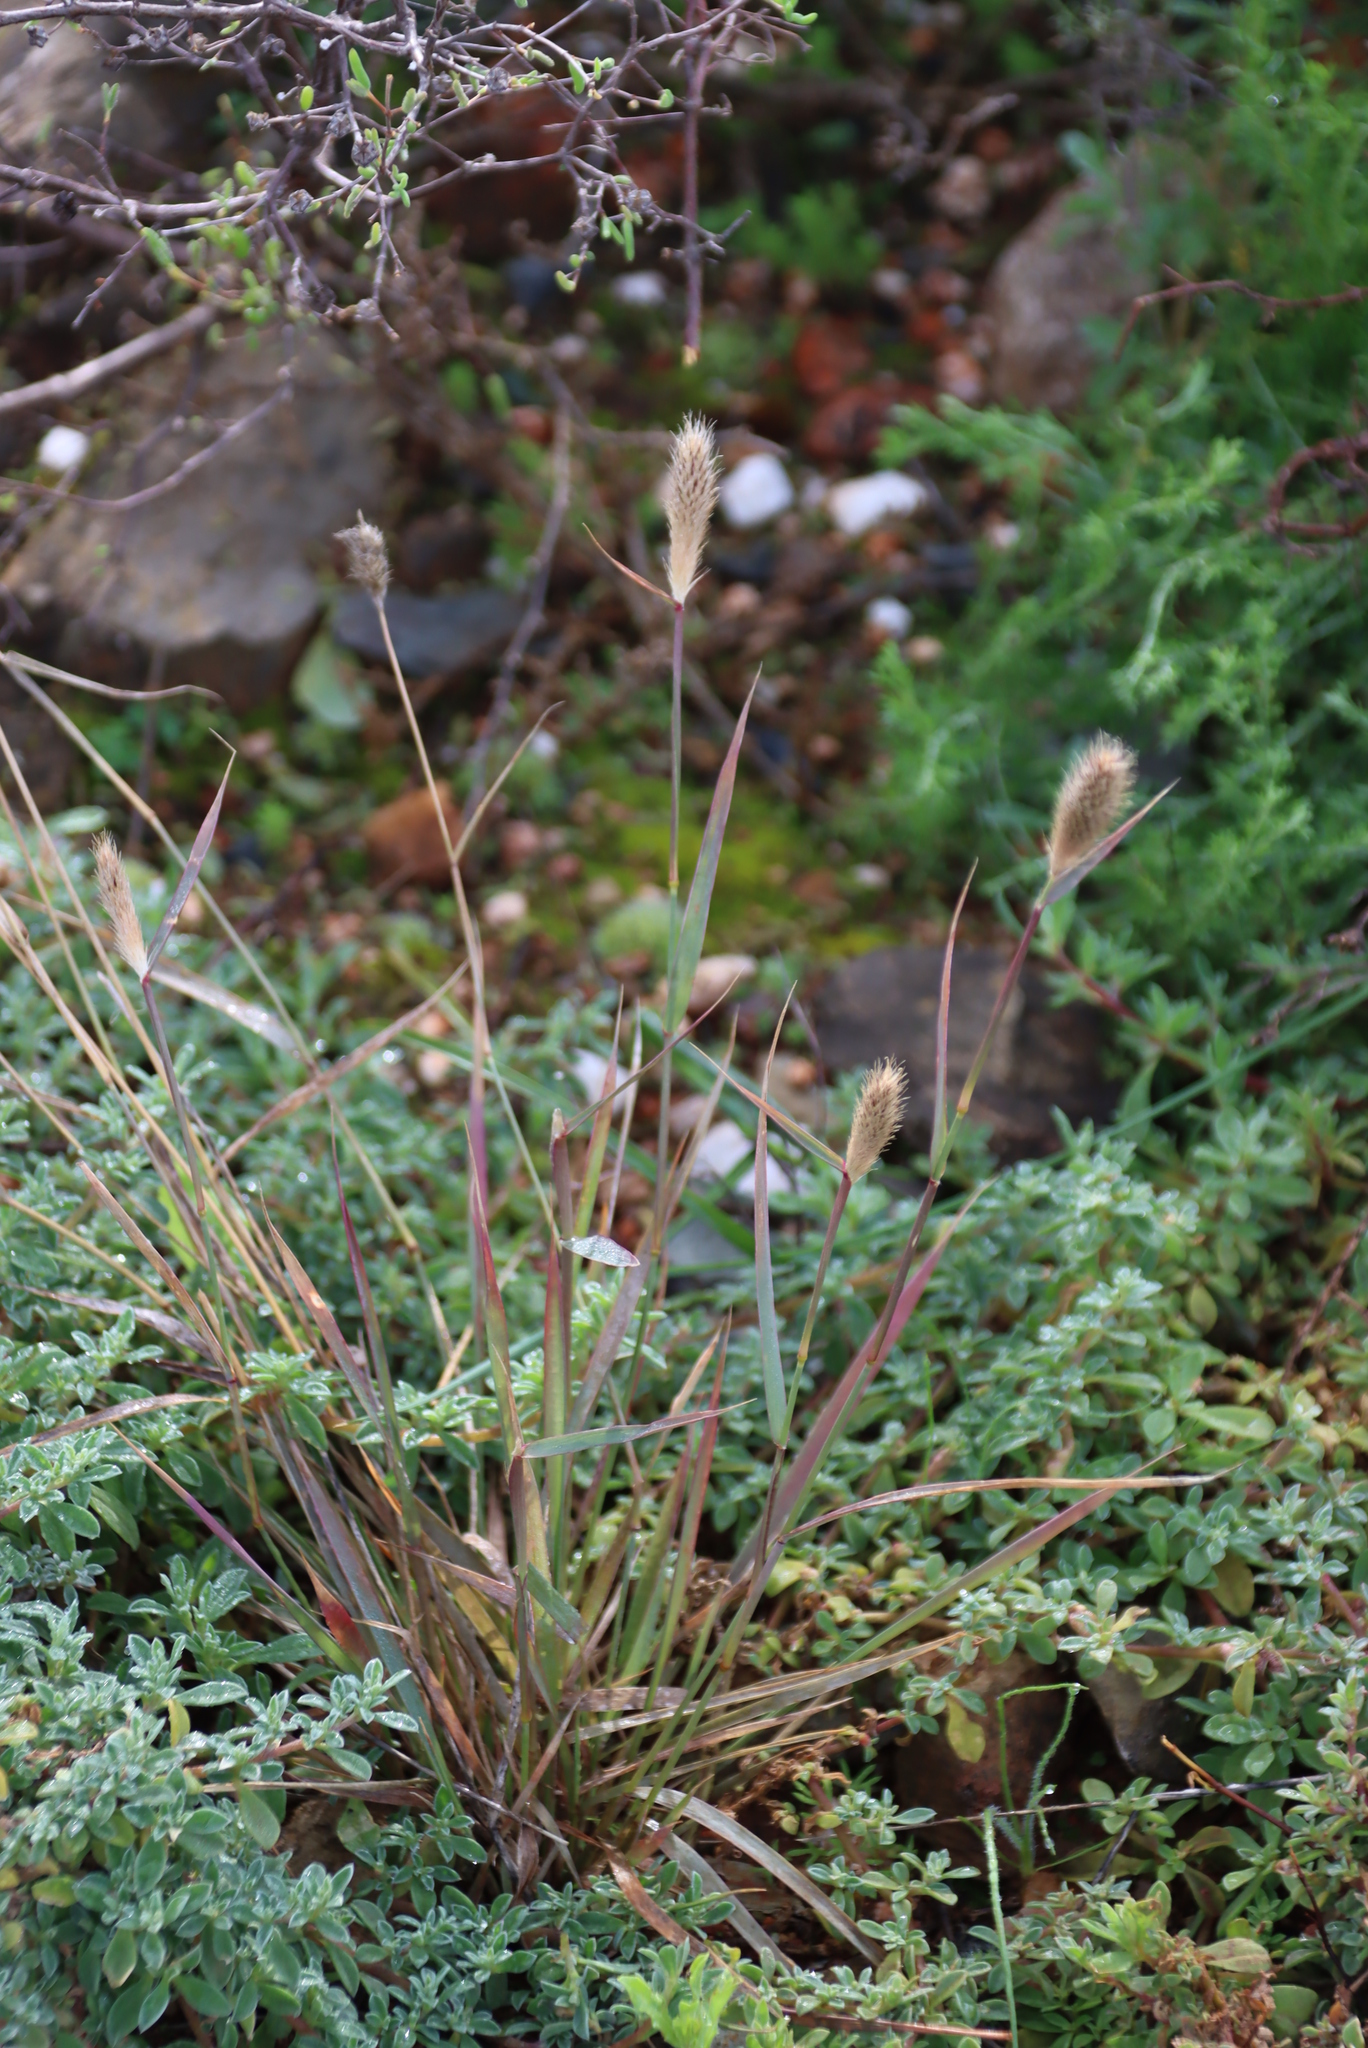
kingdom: Plantae
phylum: Tracheophyta
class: Liliopsida
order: Poales
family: Poaceae
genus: Fingerhuthia
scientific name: Fingerhuthia africana
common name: Zulu fescue
